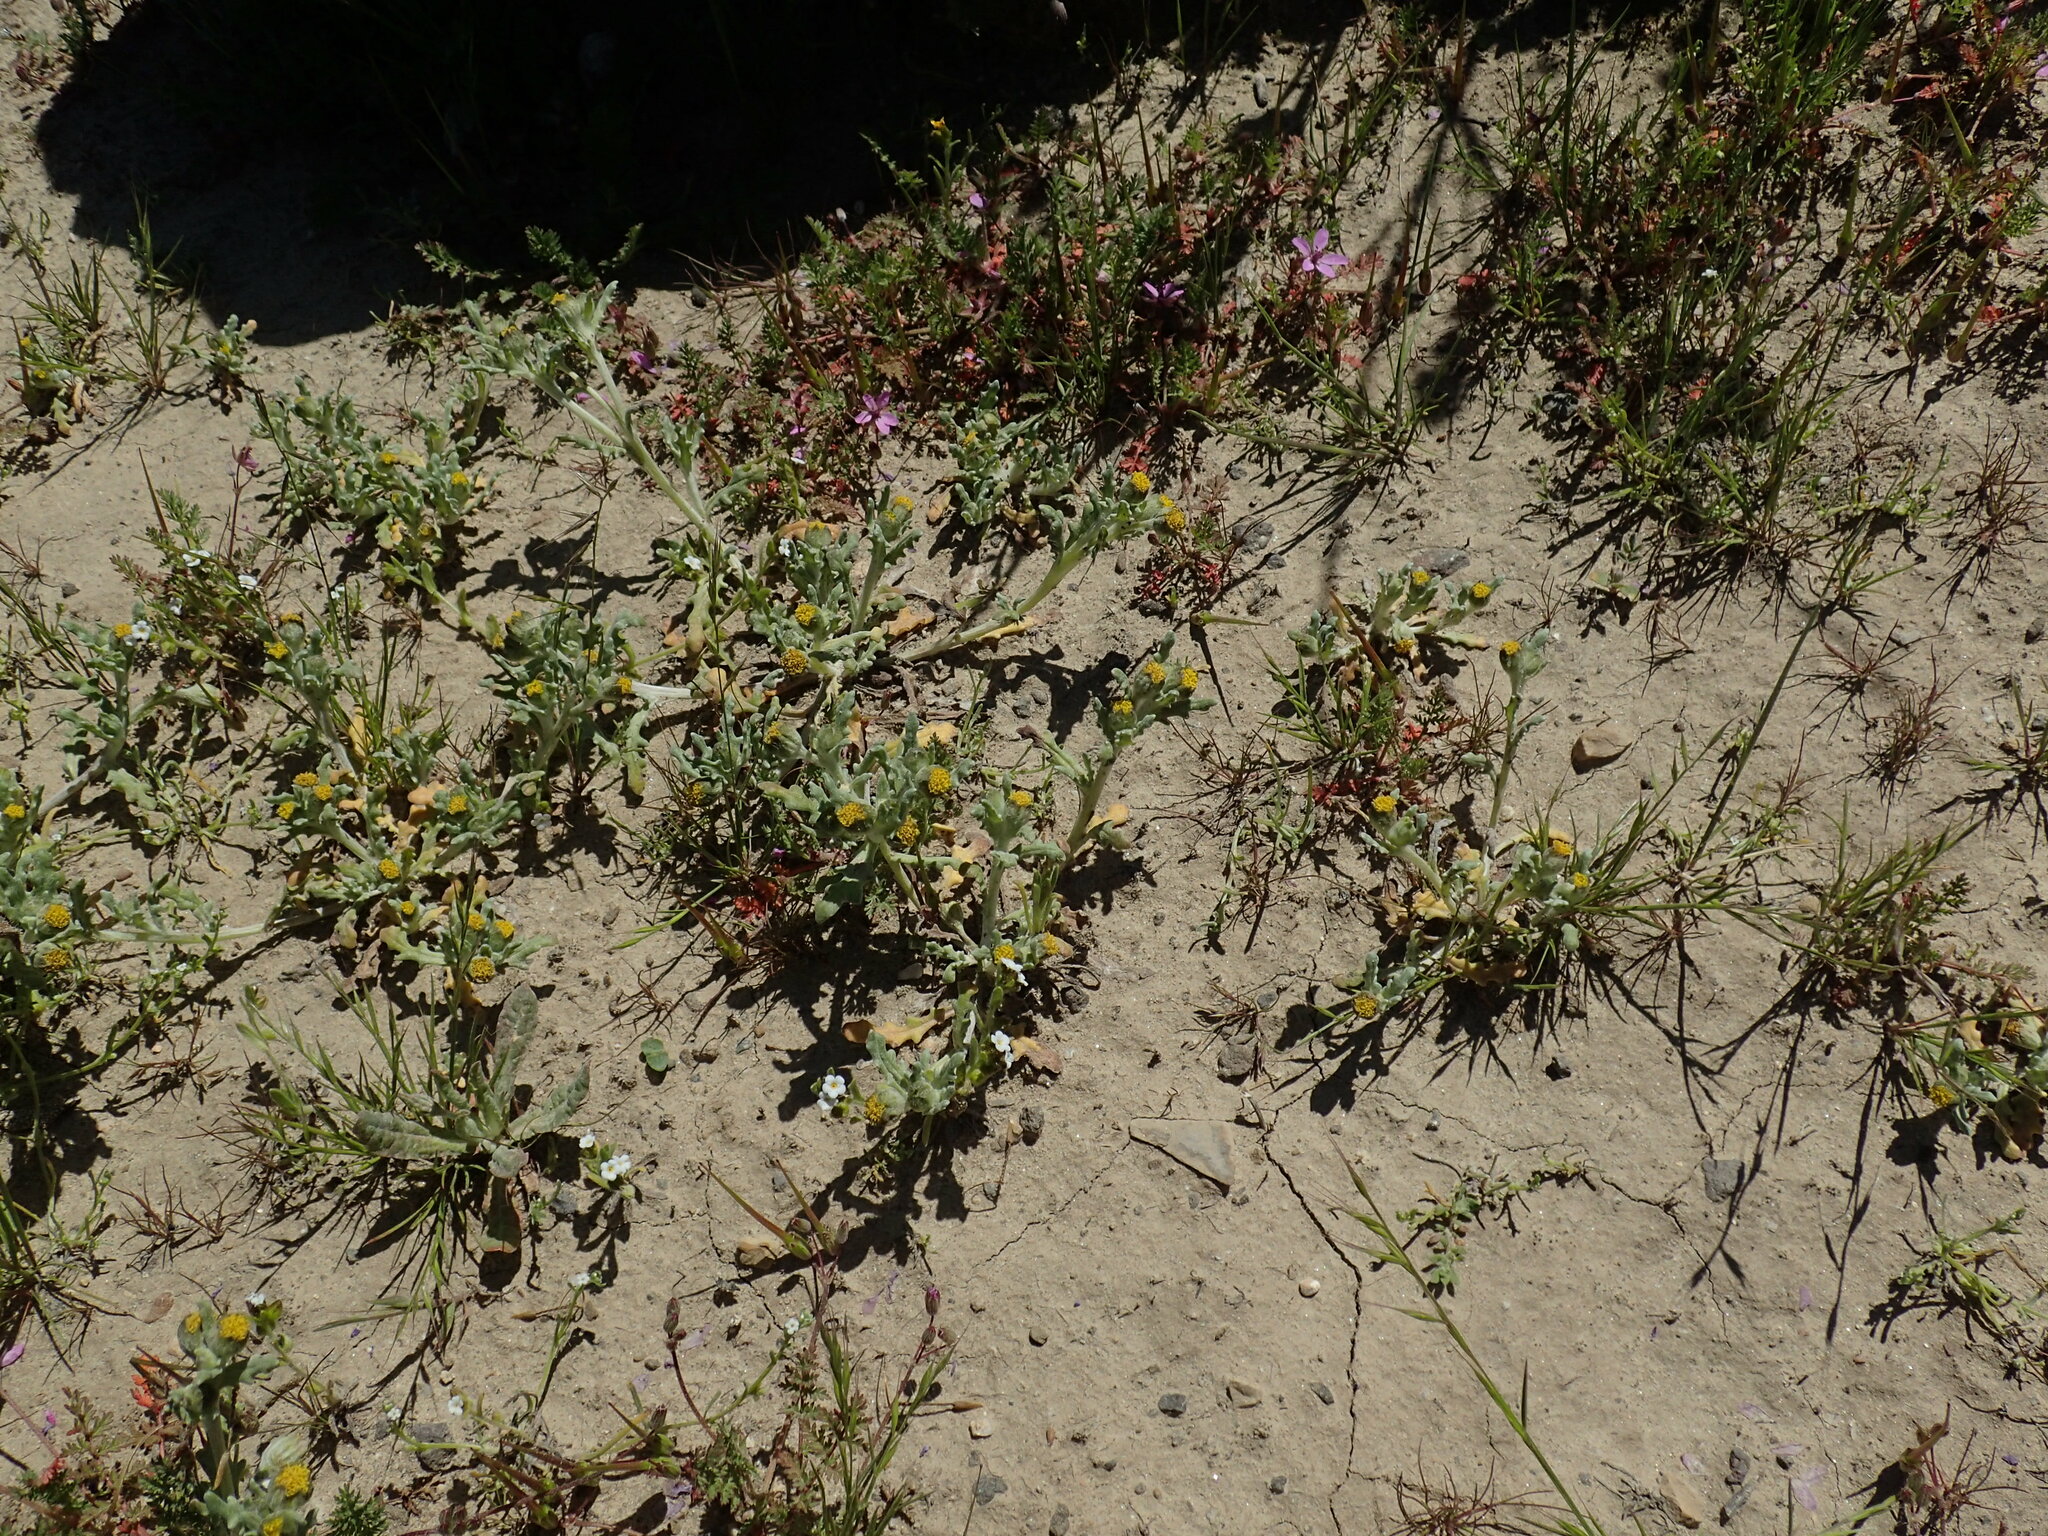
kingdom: Plantae
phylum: Tracheophyta
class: Magnoliopsida
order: Asterales
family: Asteraceae
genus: Monolopia
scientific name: Monolopia congdonii
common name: San joaquin woolly-threads
